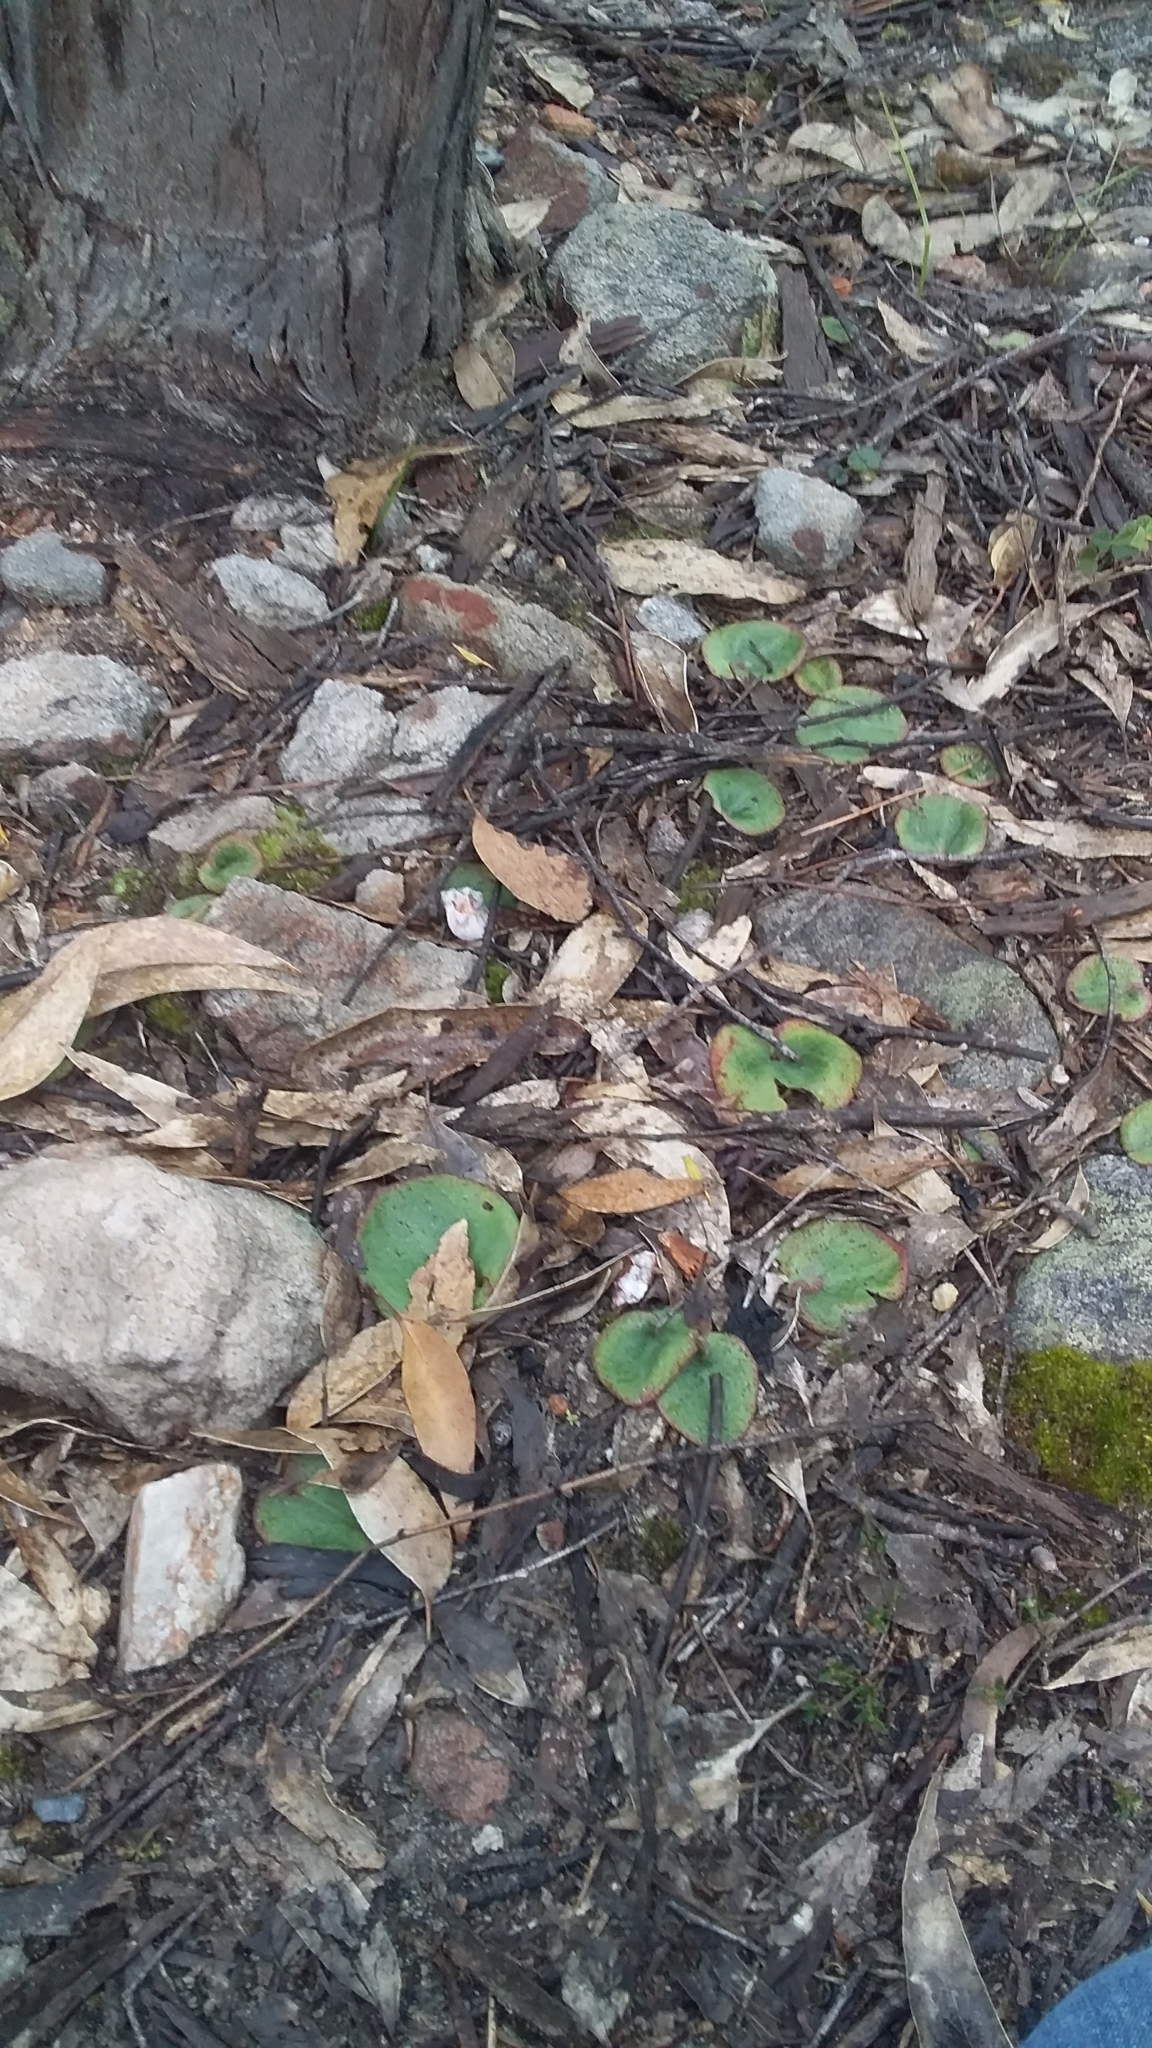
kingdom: Plantae
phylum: Tracheophyta
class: Liliopsida
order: Asparagales
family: Orchidaceae
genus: Pyrorchis
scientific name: Pyrorchis nigricans
